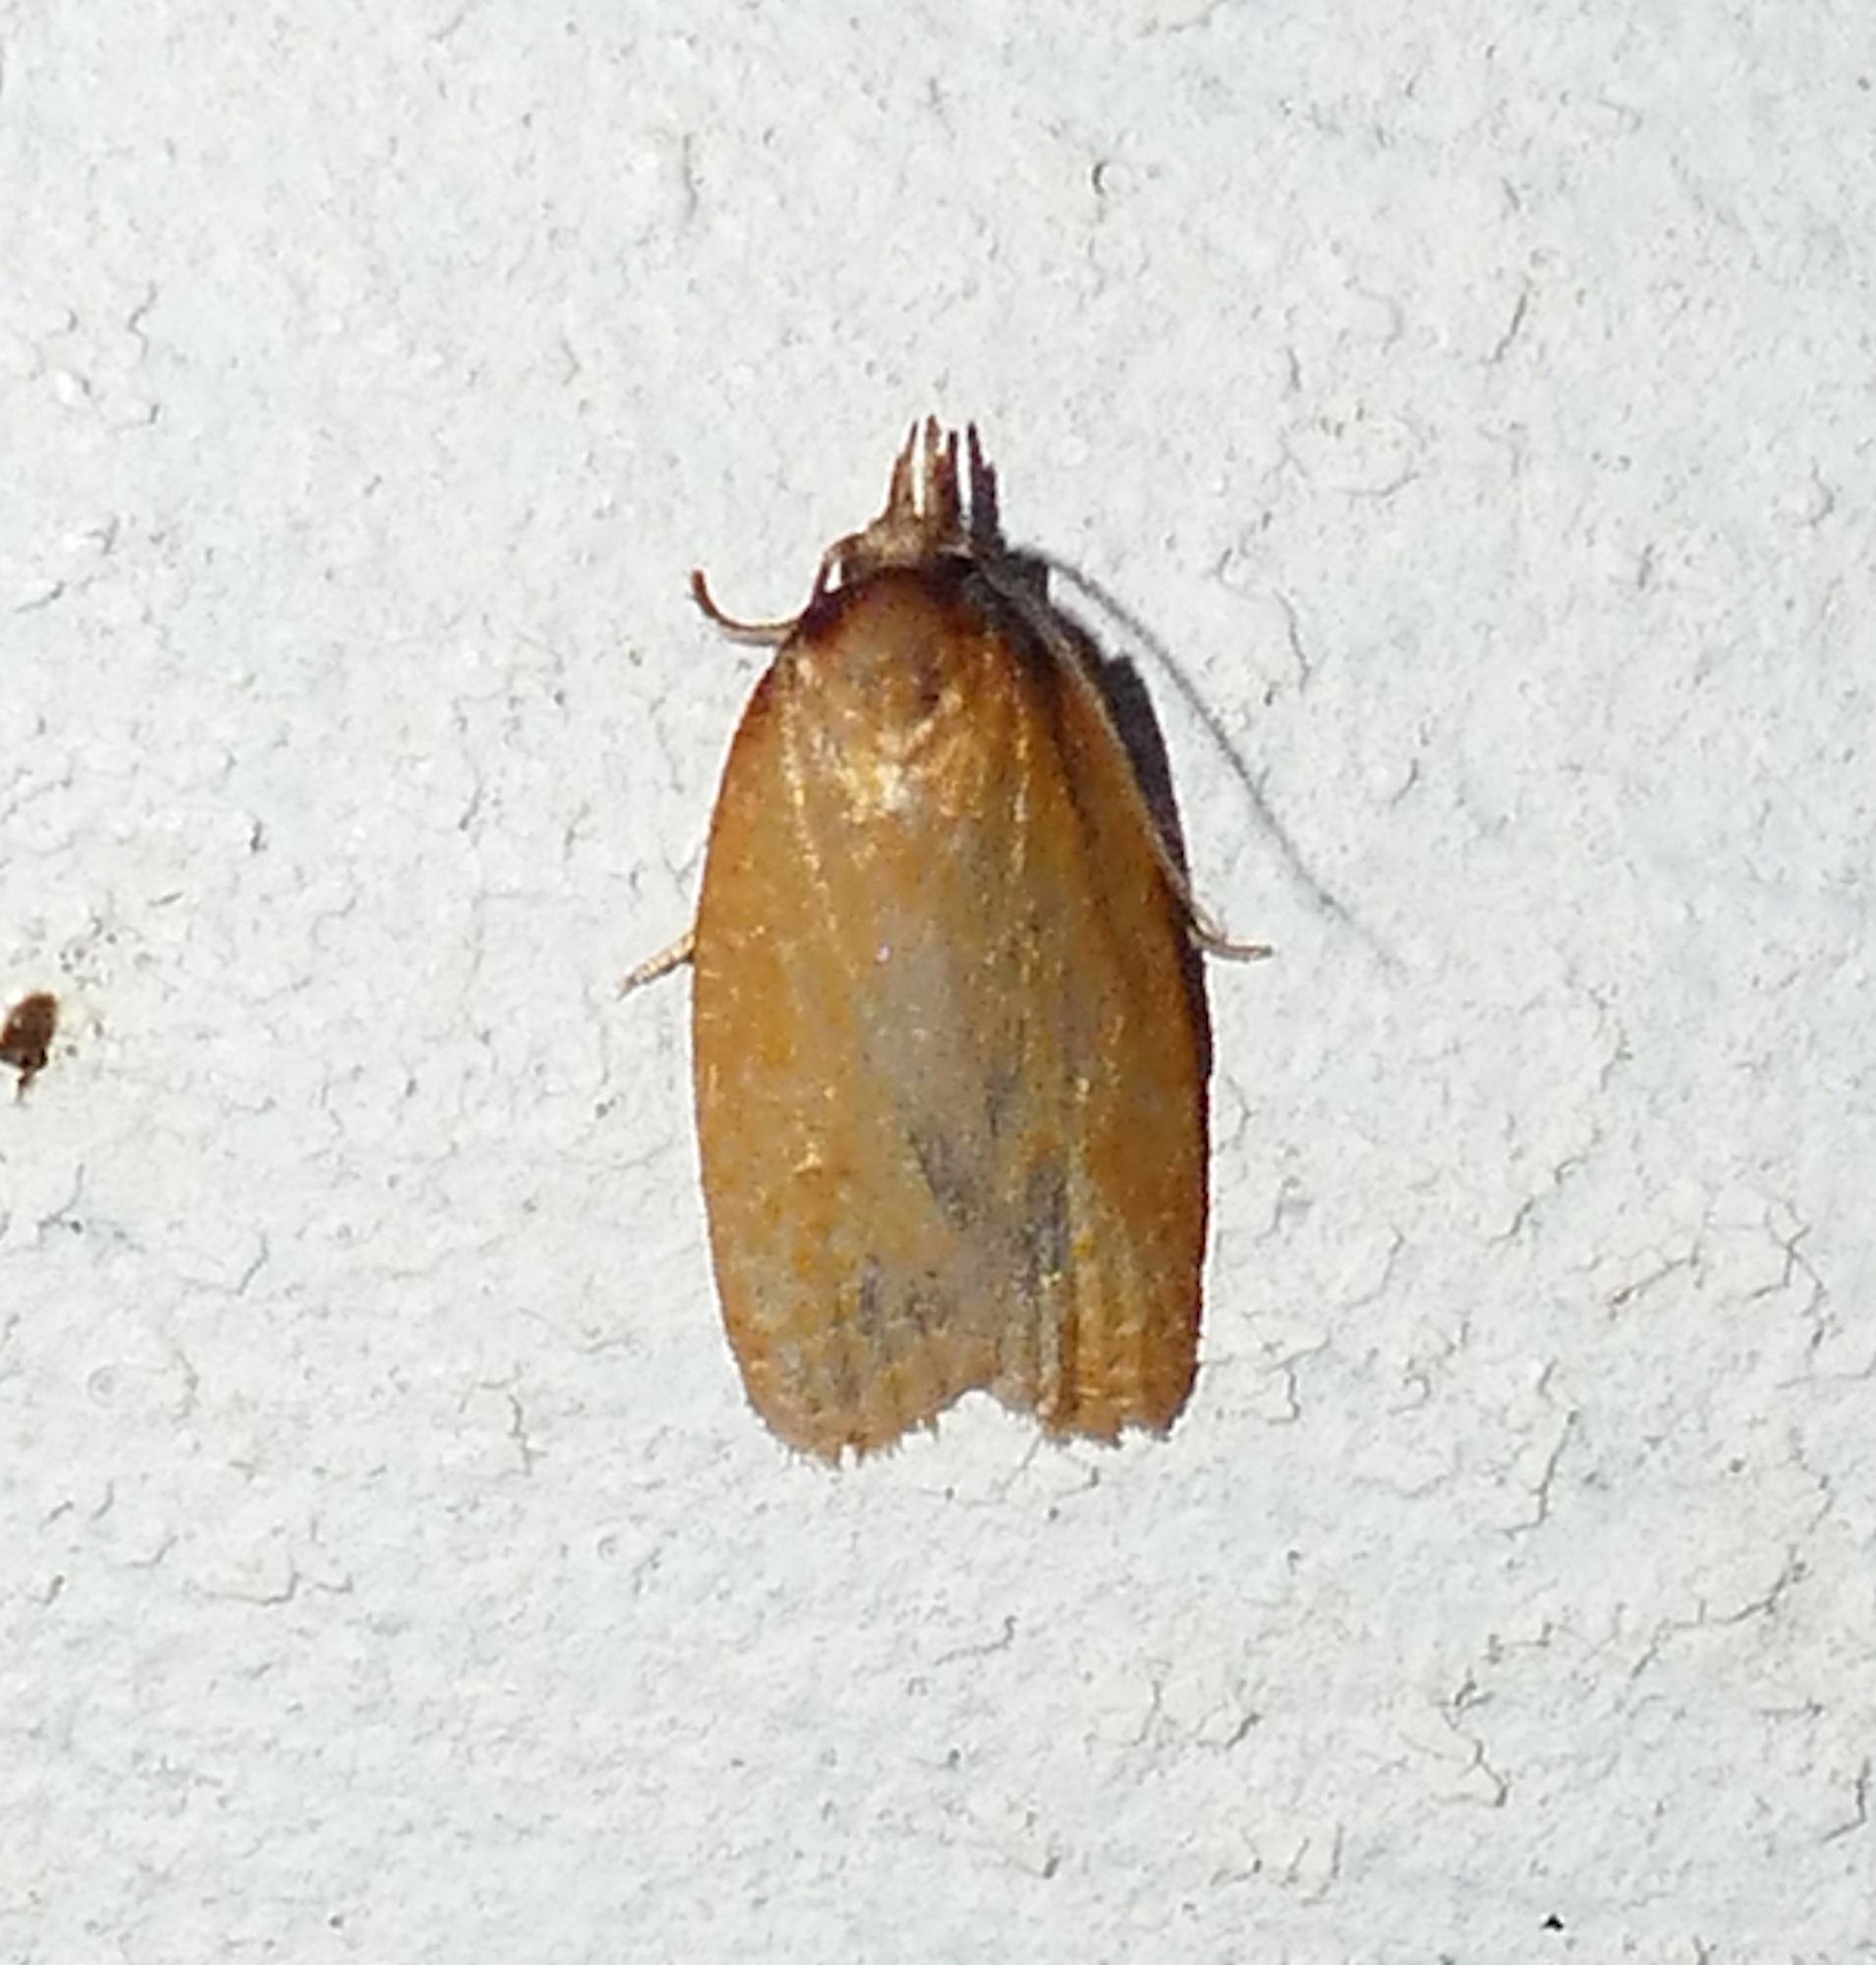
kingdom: Animalia
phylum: Arthropoda
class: Insecta
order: Lepidoptera
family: Tortricidae
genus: Sparganothis
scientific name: Sparganothis distincta
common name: Distinct sparganothis moth
